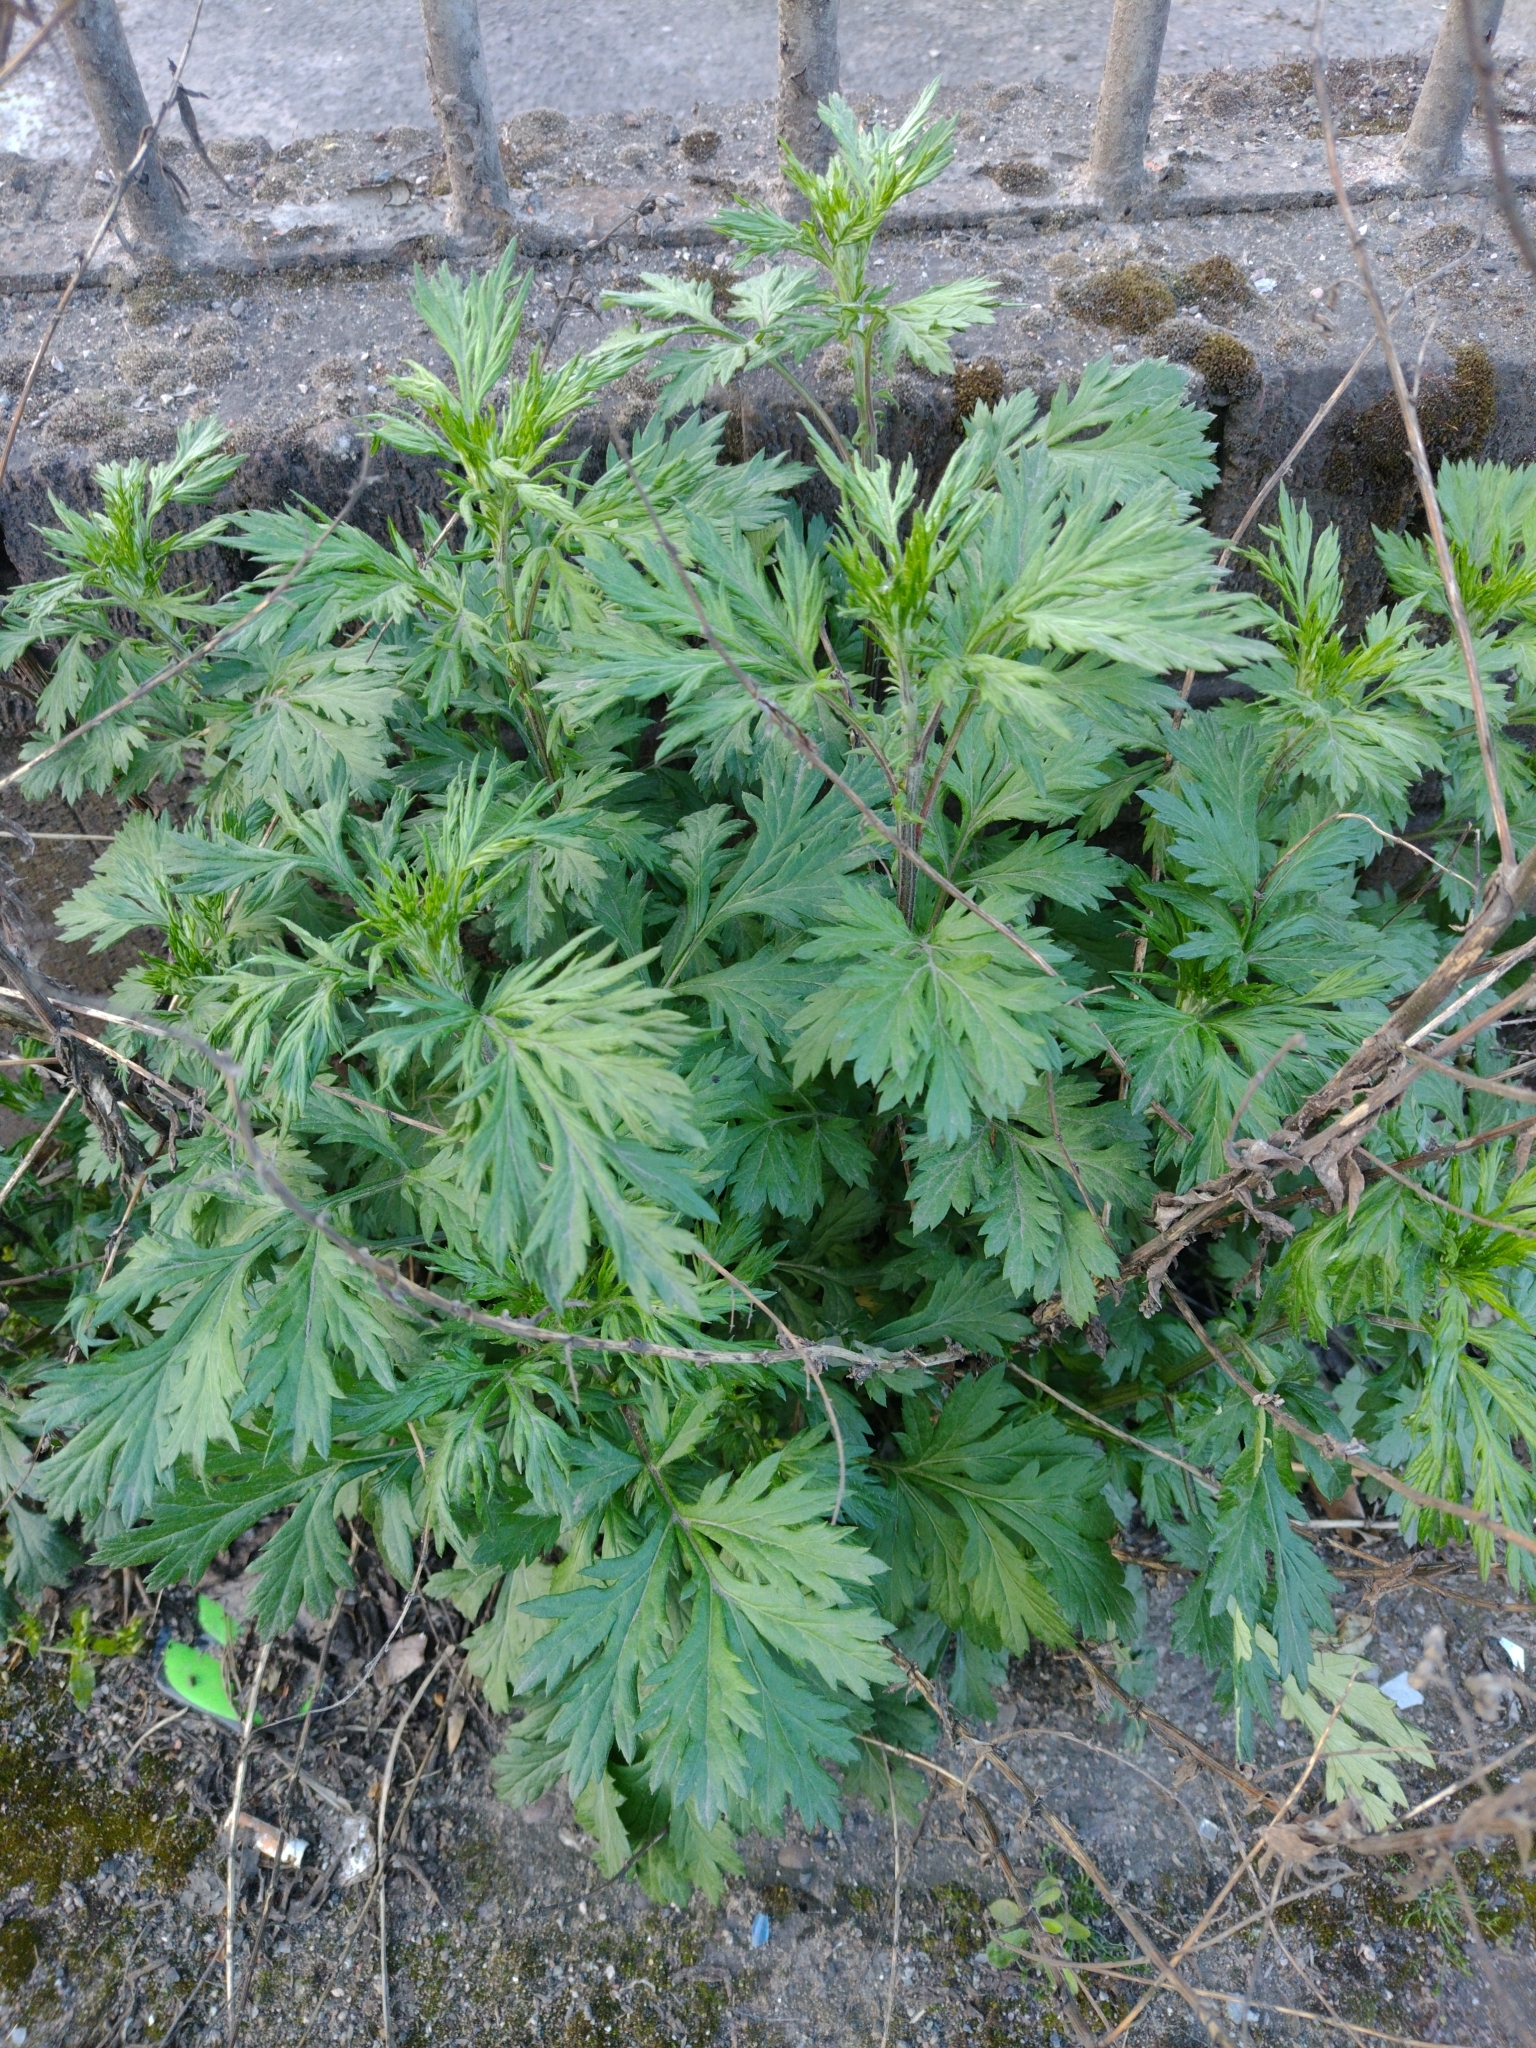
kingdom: Plantae
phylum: Tracheophyta
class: Magnoliopsida
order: Asterales
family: Asteraceae
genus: Artemisia
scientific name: Artemisia vulgaris
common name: Mugwort
